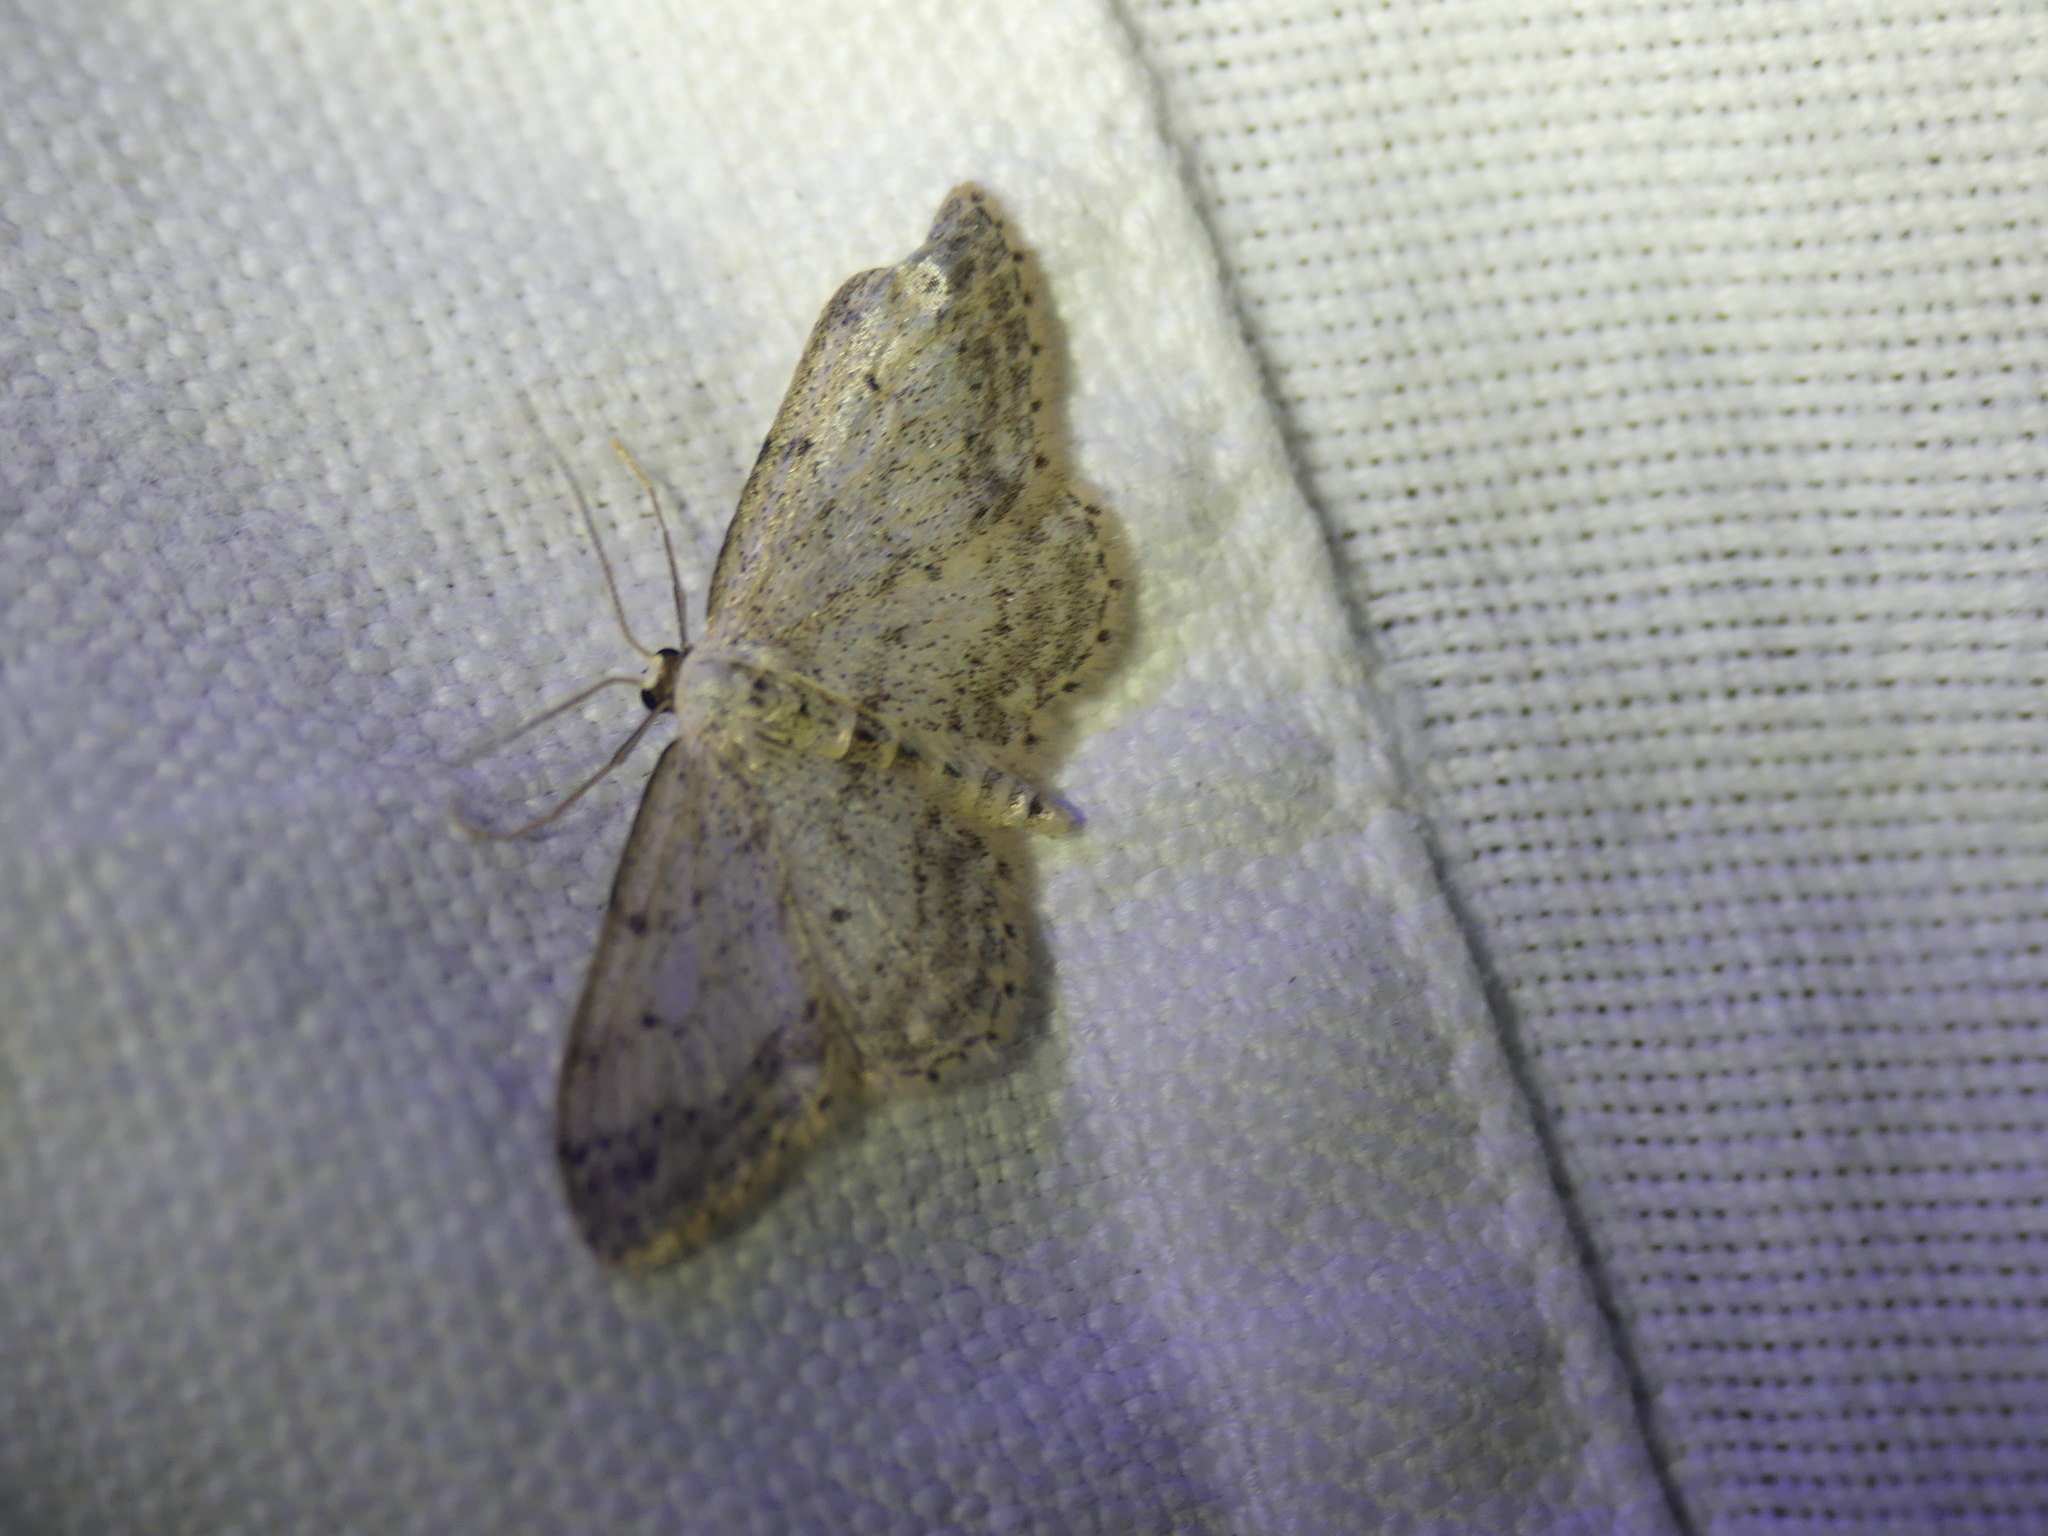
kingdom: Animalia
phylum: Arthropoda
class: Insecta
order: Lepidoptera
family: Geometridae
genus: Idaea
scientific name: Idaea seriata
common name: Small dusty wave
